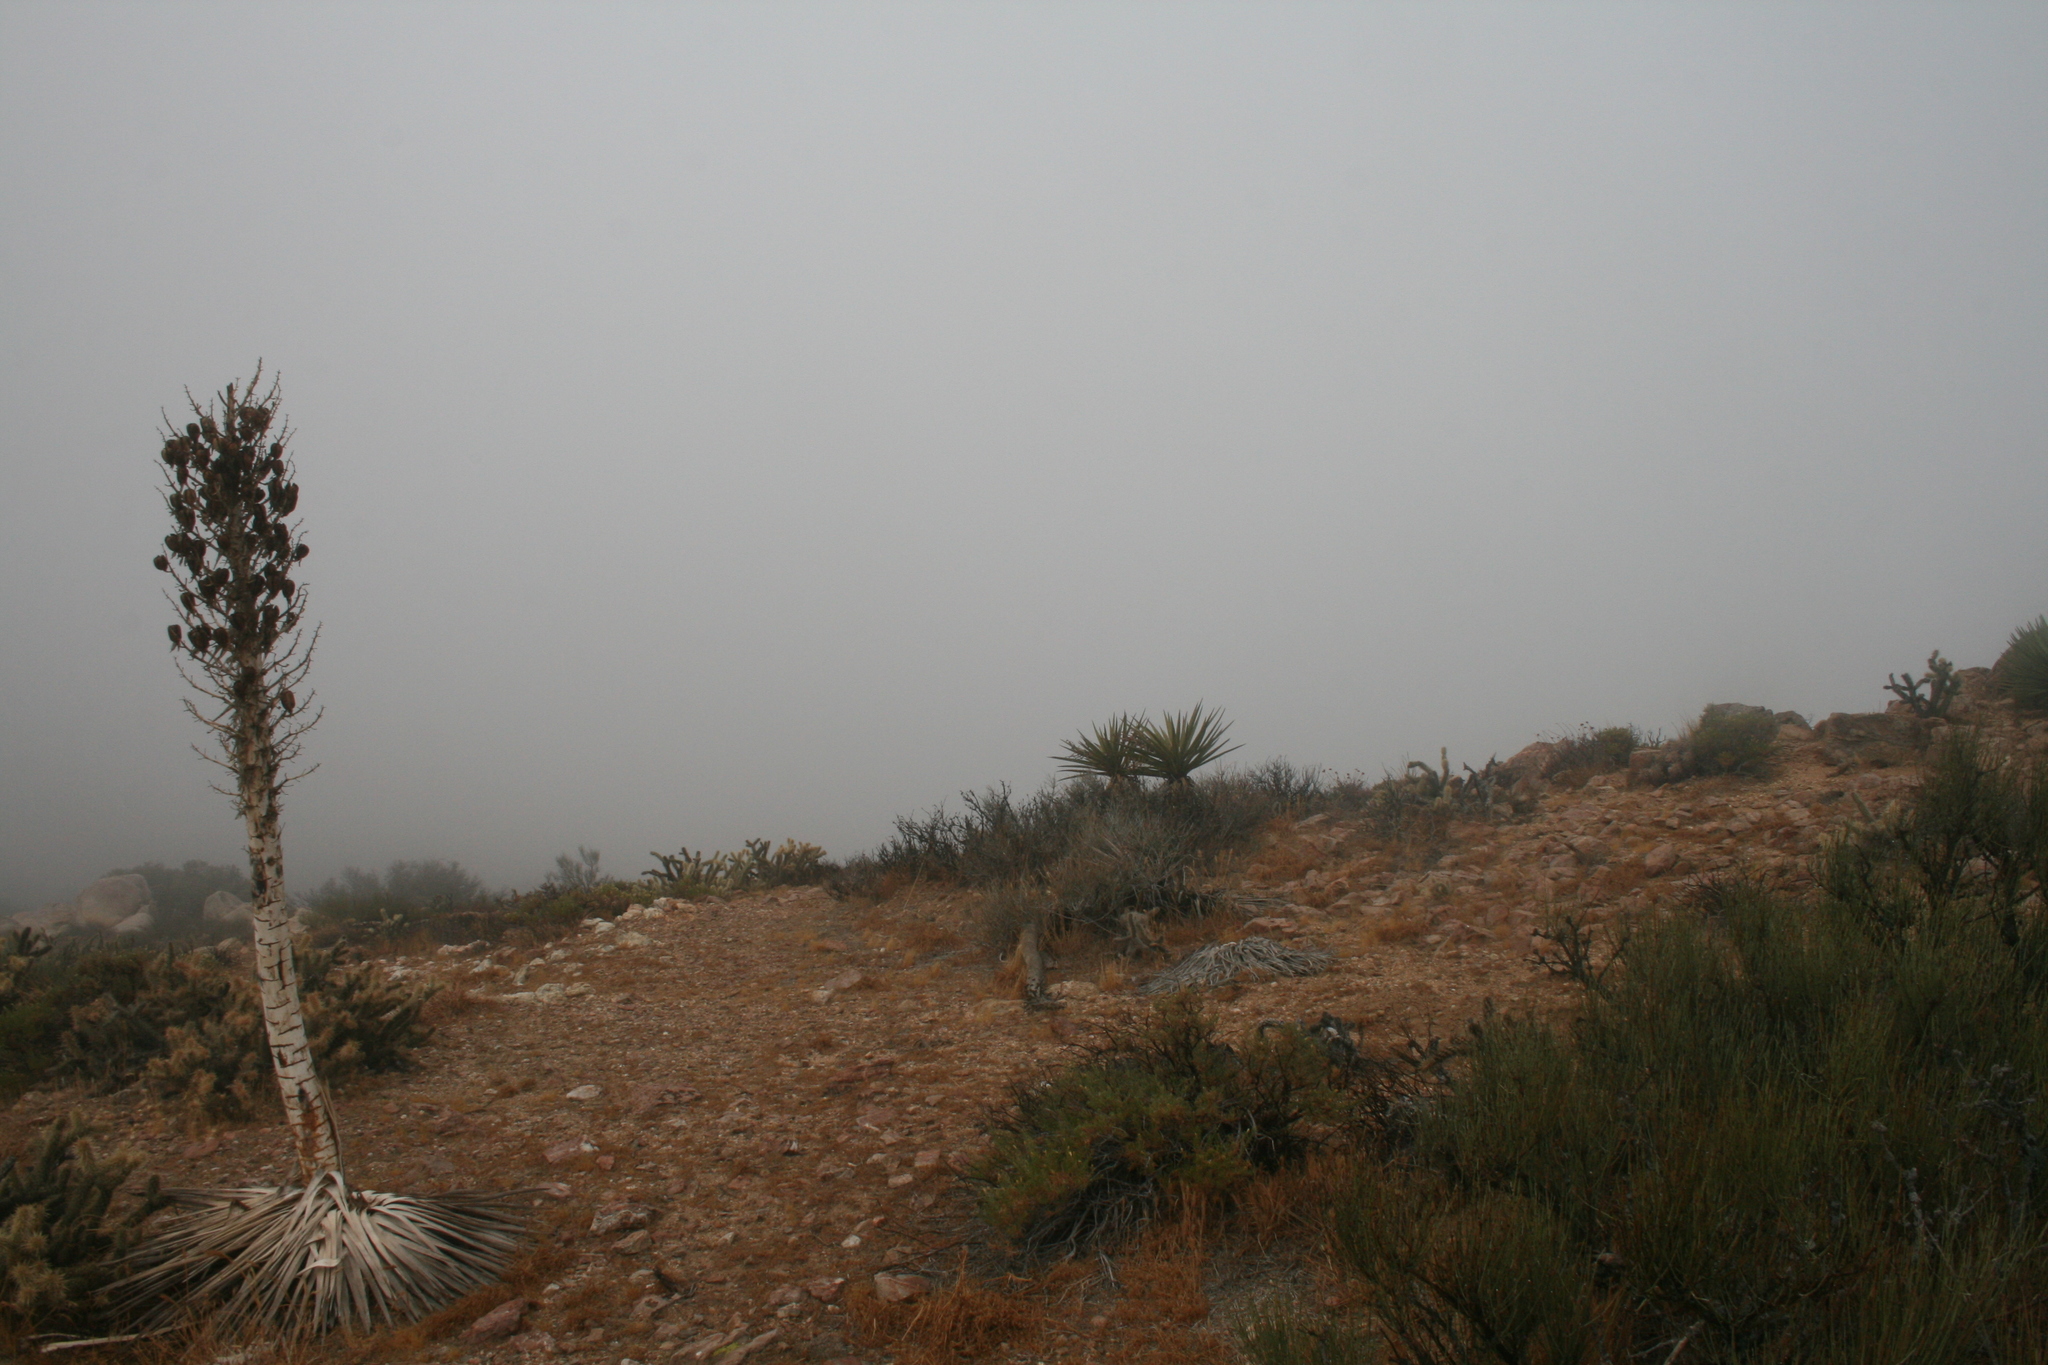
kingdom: Plantae
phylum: Tracheophyta
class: Liliopsida
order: Asparagales
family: Asparagaceae
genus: Hesperoyucca
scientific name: Hesperoyucca whipplei
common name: Our lord's-candle
